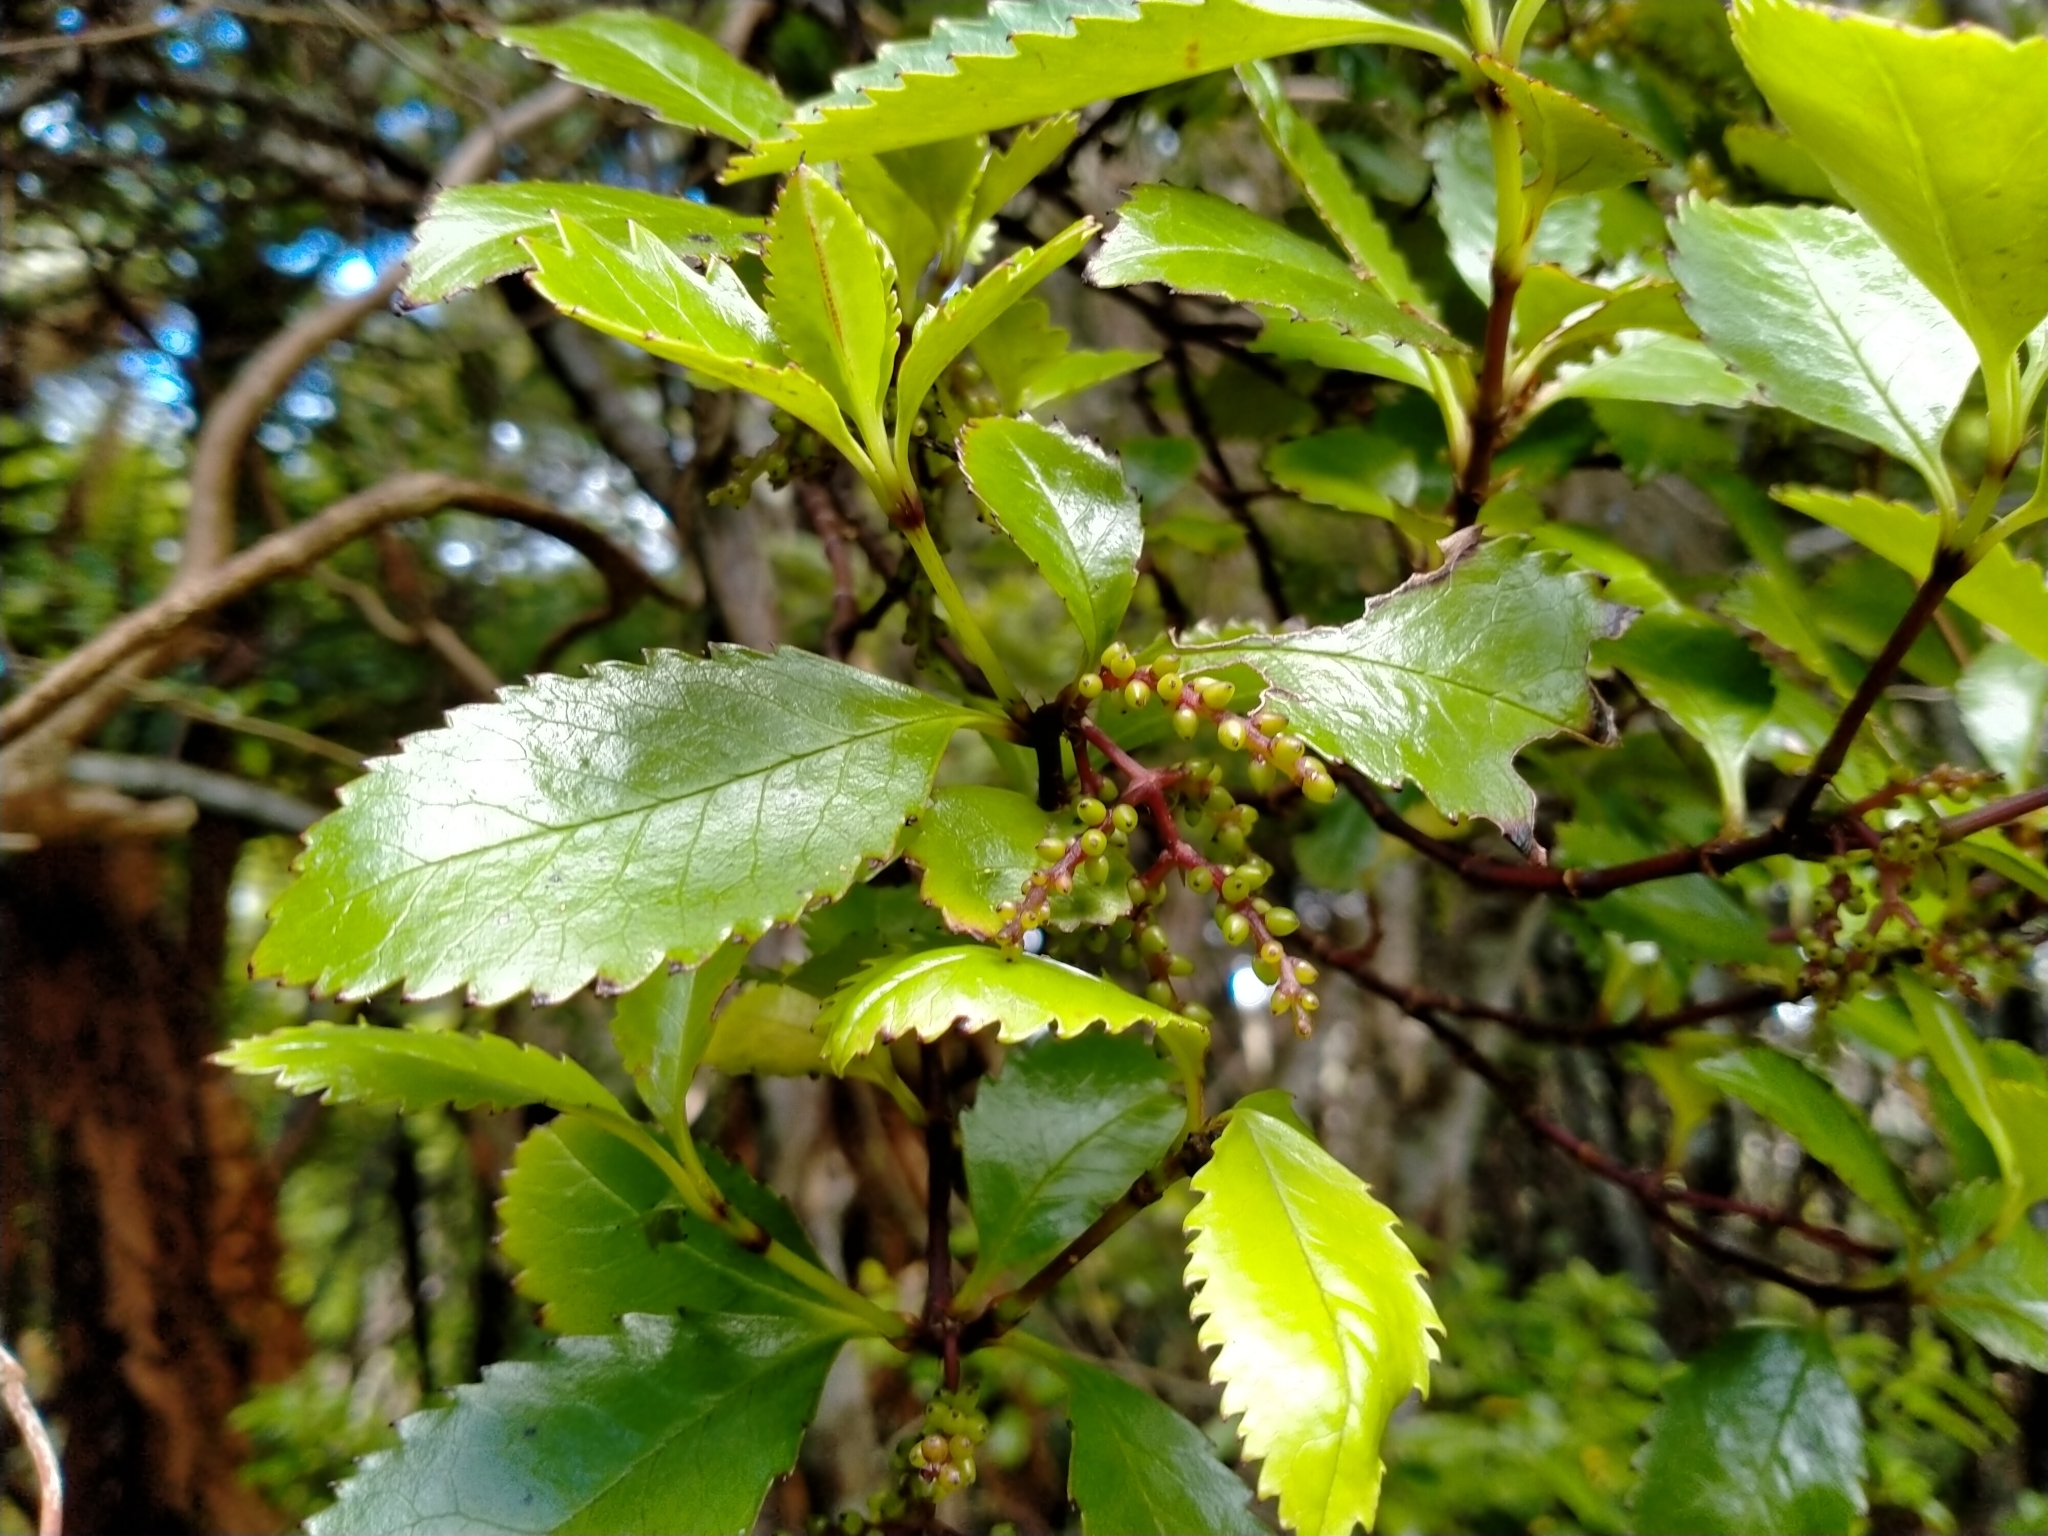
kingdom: Plantae
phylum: Tracheophyta
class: Magnoliopsida
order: Chloranthales
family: Chloranthaceae
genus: Ascarina
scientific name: Ascarina lucida
